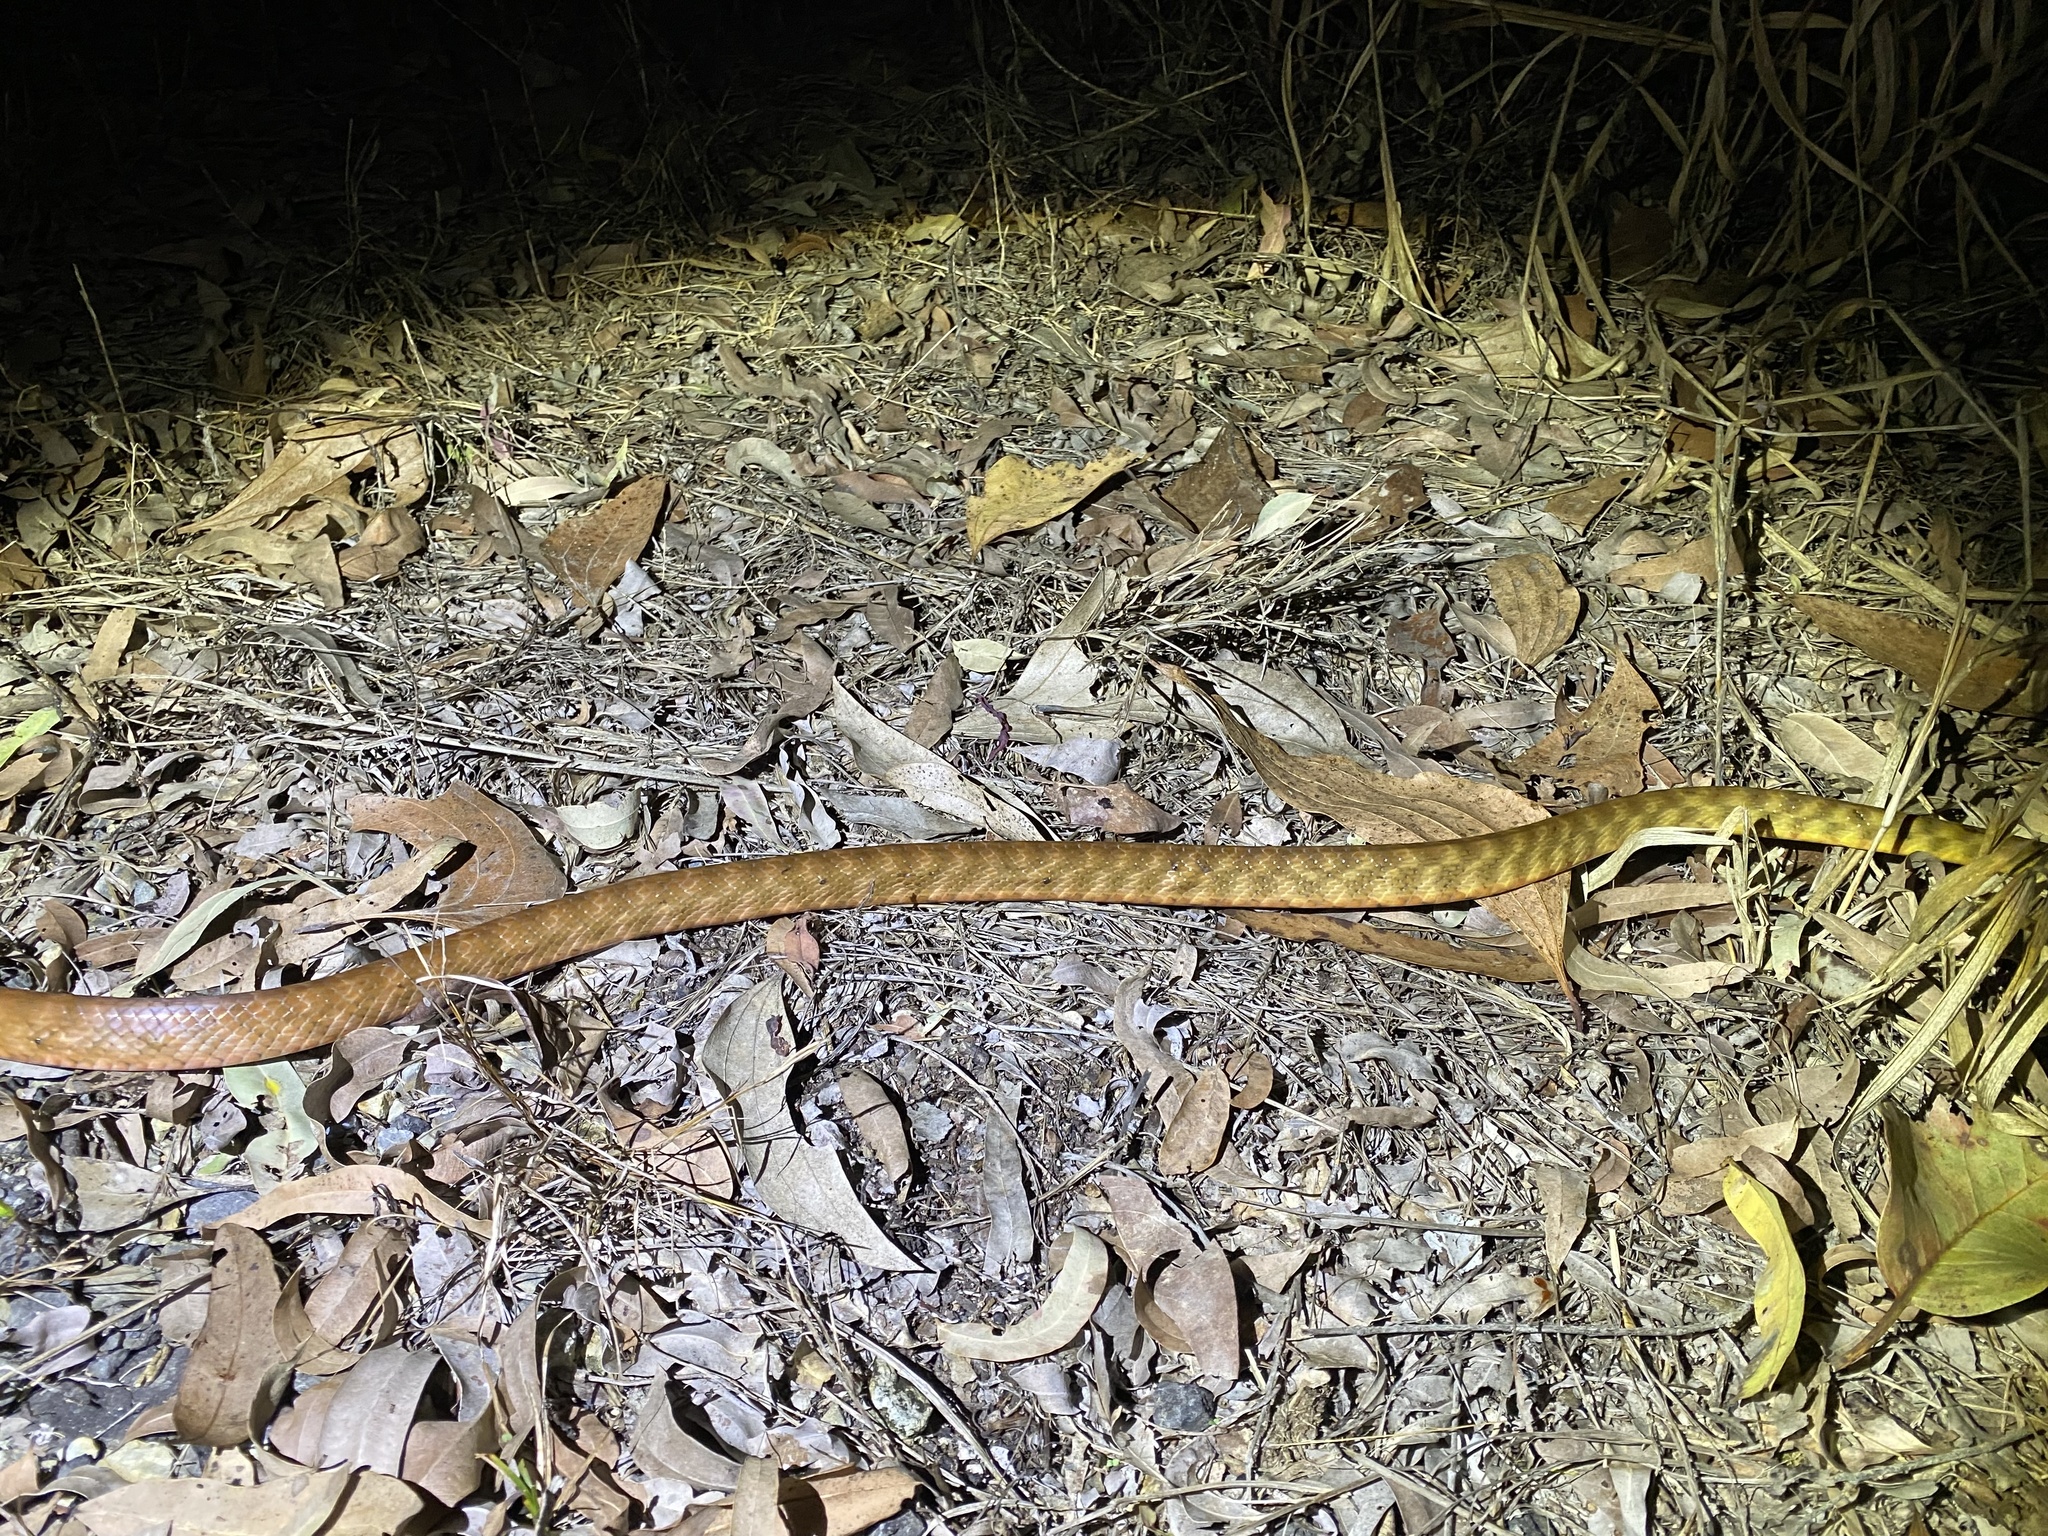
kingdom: Animalia
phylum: Chordata
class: Squamata
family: Colubridae
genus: Boiga
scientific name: Boiga irregularis
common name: Brown tree snake
